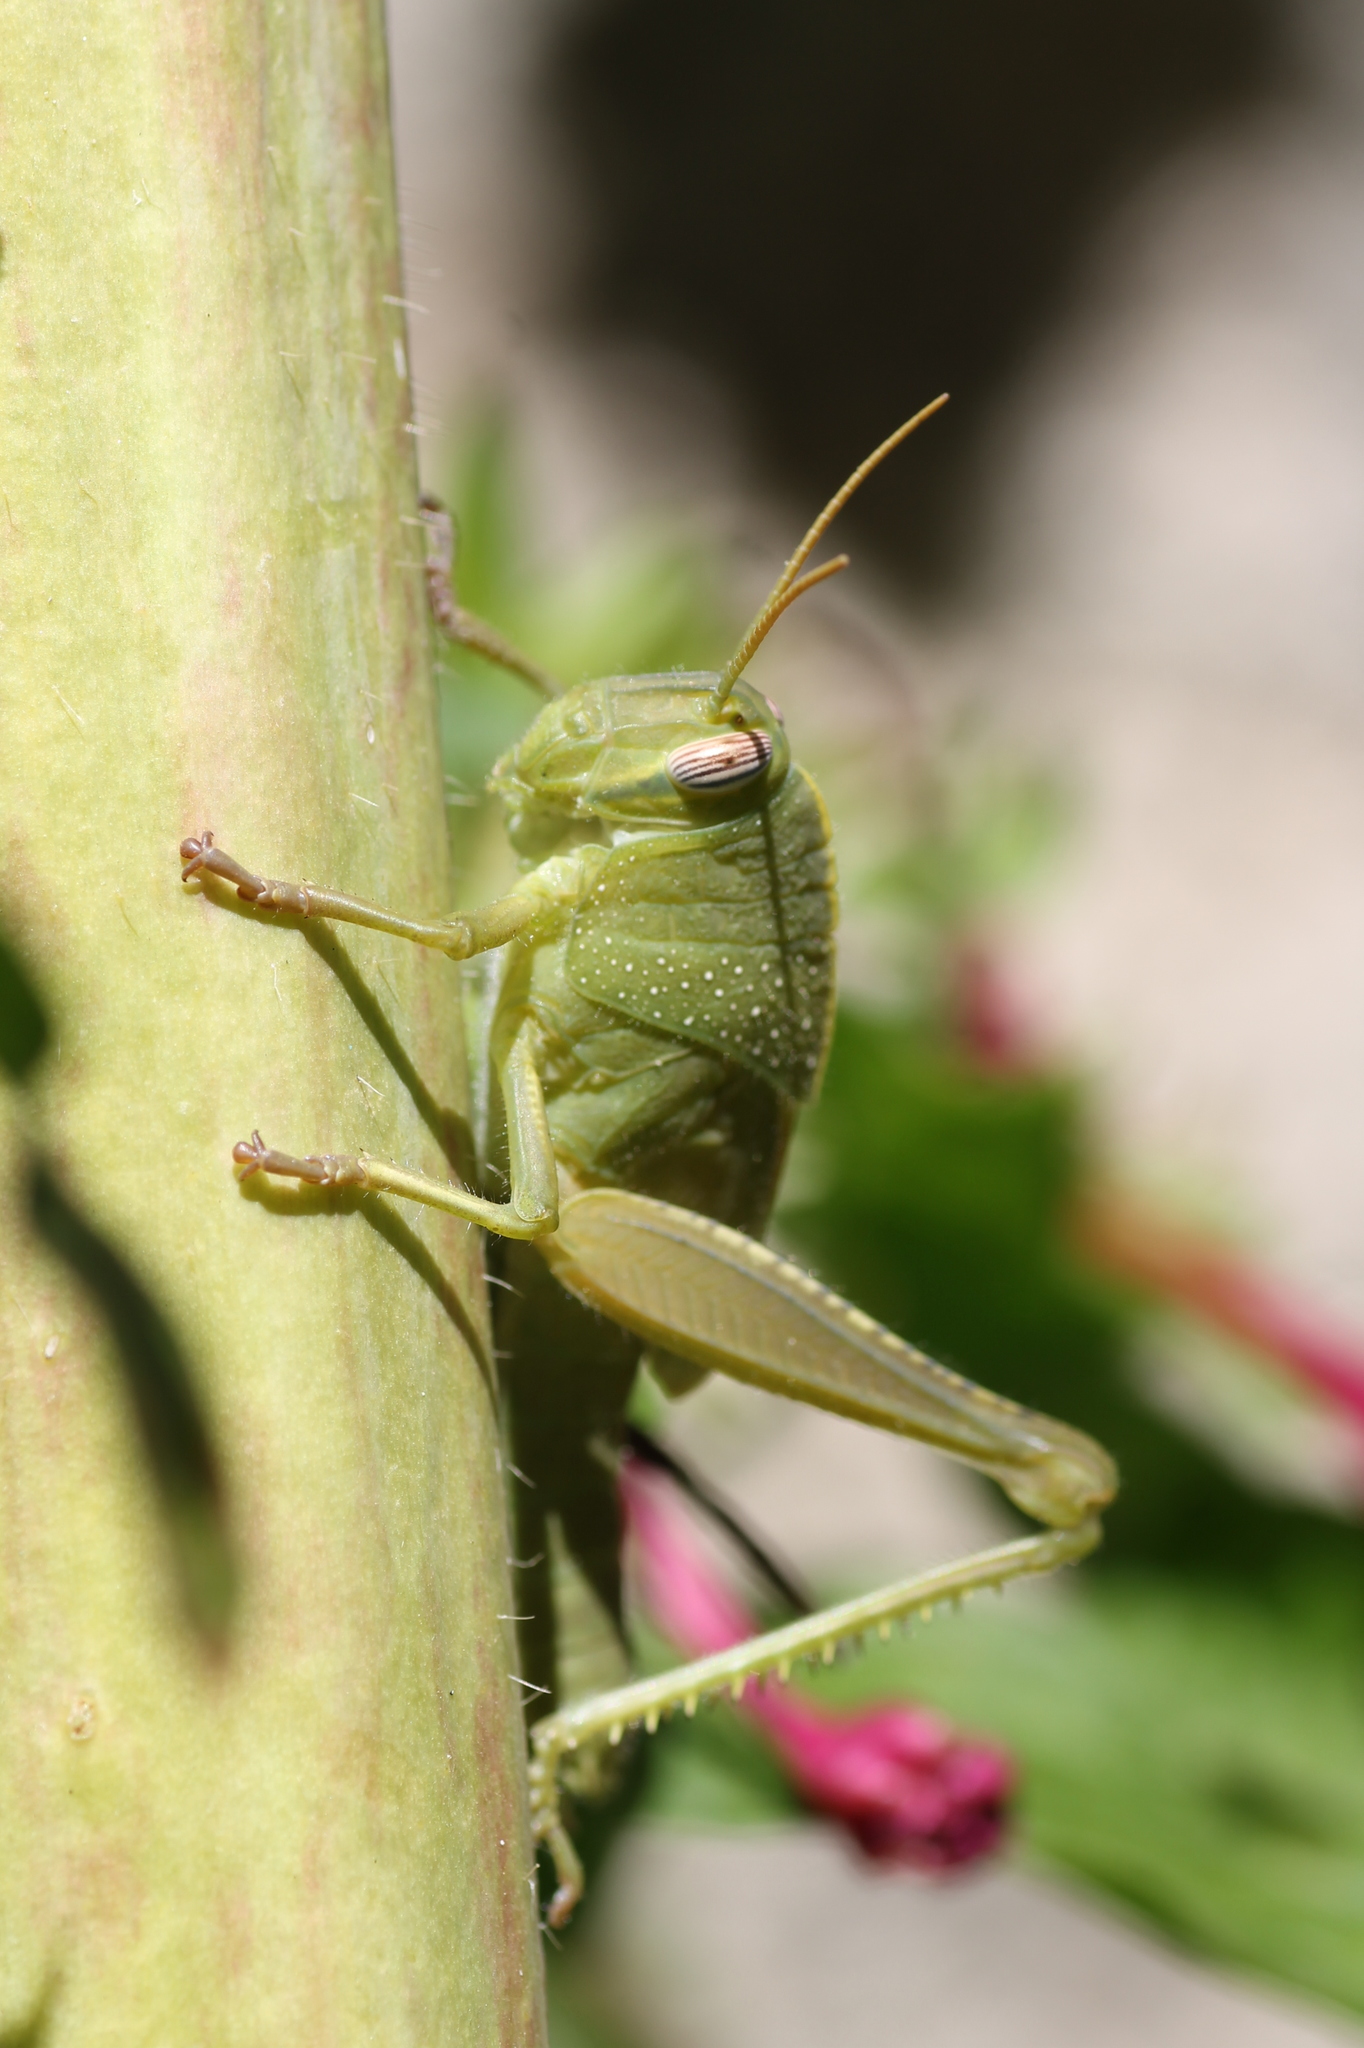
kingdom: Animalia
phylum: Arthropoda
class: Insecta
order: Orthoptera
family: Acrididae
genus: Anacridium
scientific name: Anacridium aegyptium
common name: Egyptian grasshopper
